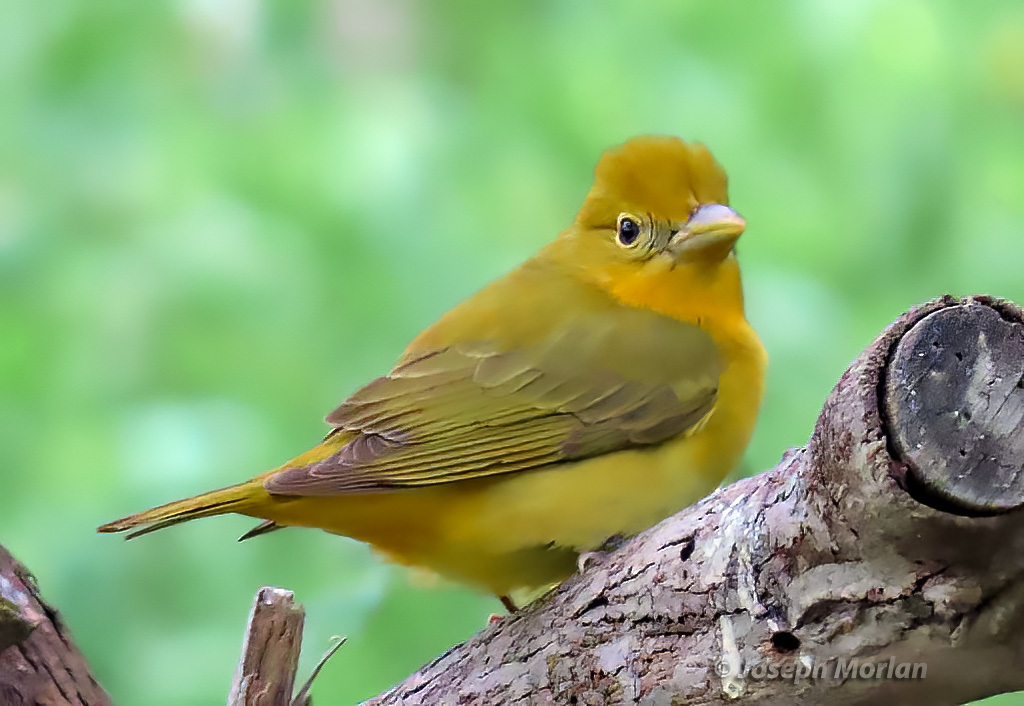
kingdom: Animalia
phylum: Chordata
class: Aves
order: Passeriformes
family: Cardinalidae
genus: Piranga
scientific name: Piranga rubra
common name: Summer tanager
